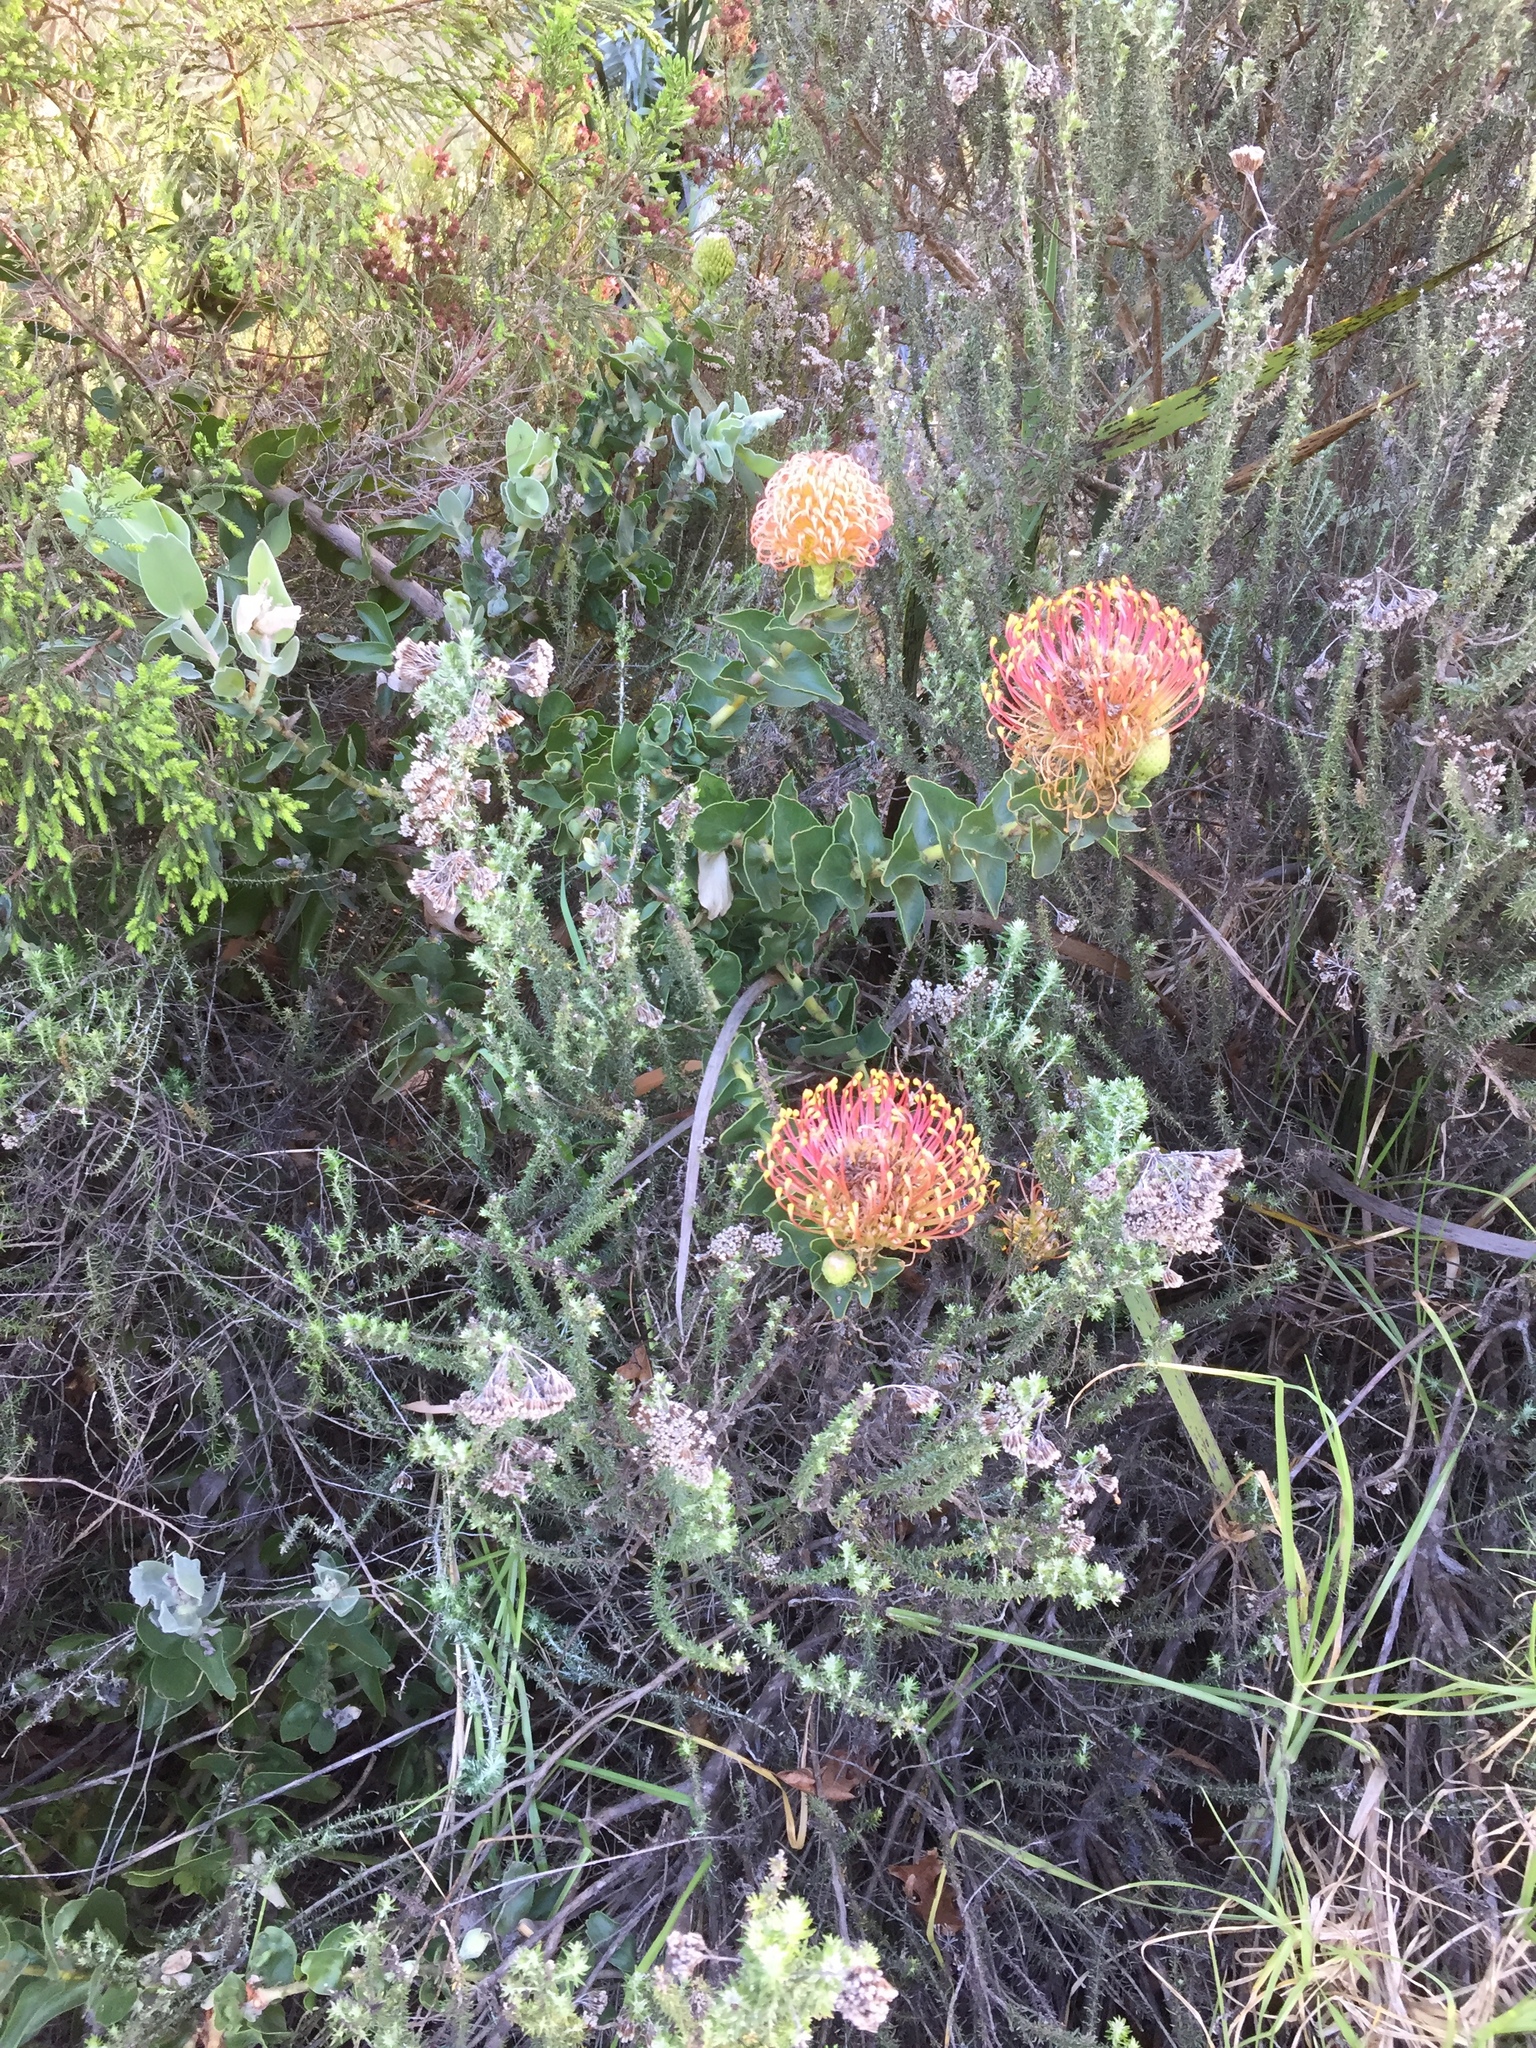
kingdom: Plantae
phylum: Tracheophyta
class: Magnoliopsida
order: Proteales
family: Proteaceae
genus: Leucospermum
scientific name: Leucospermum cordifolium
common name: Red pincushion-protea
